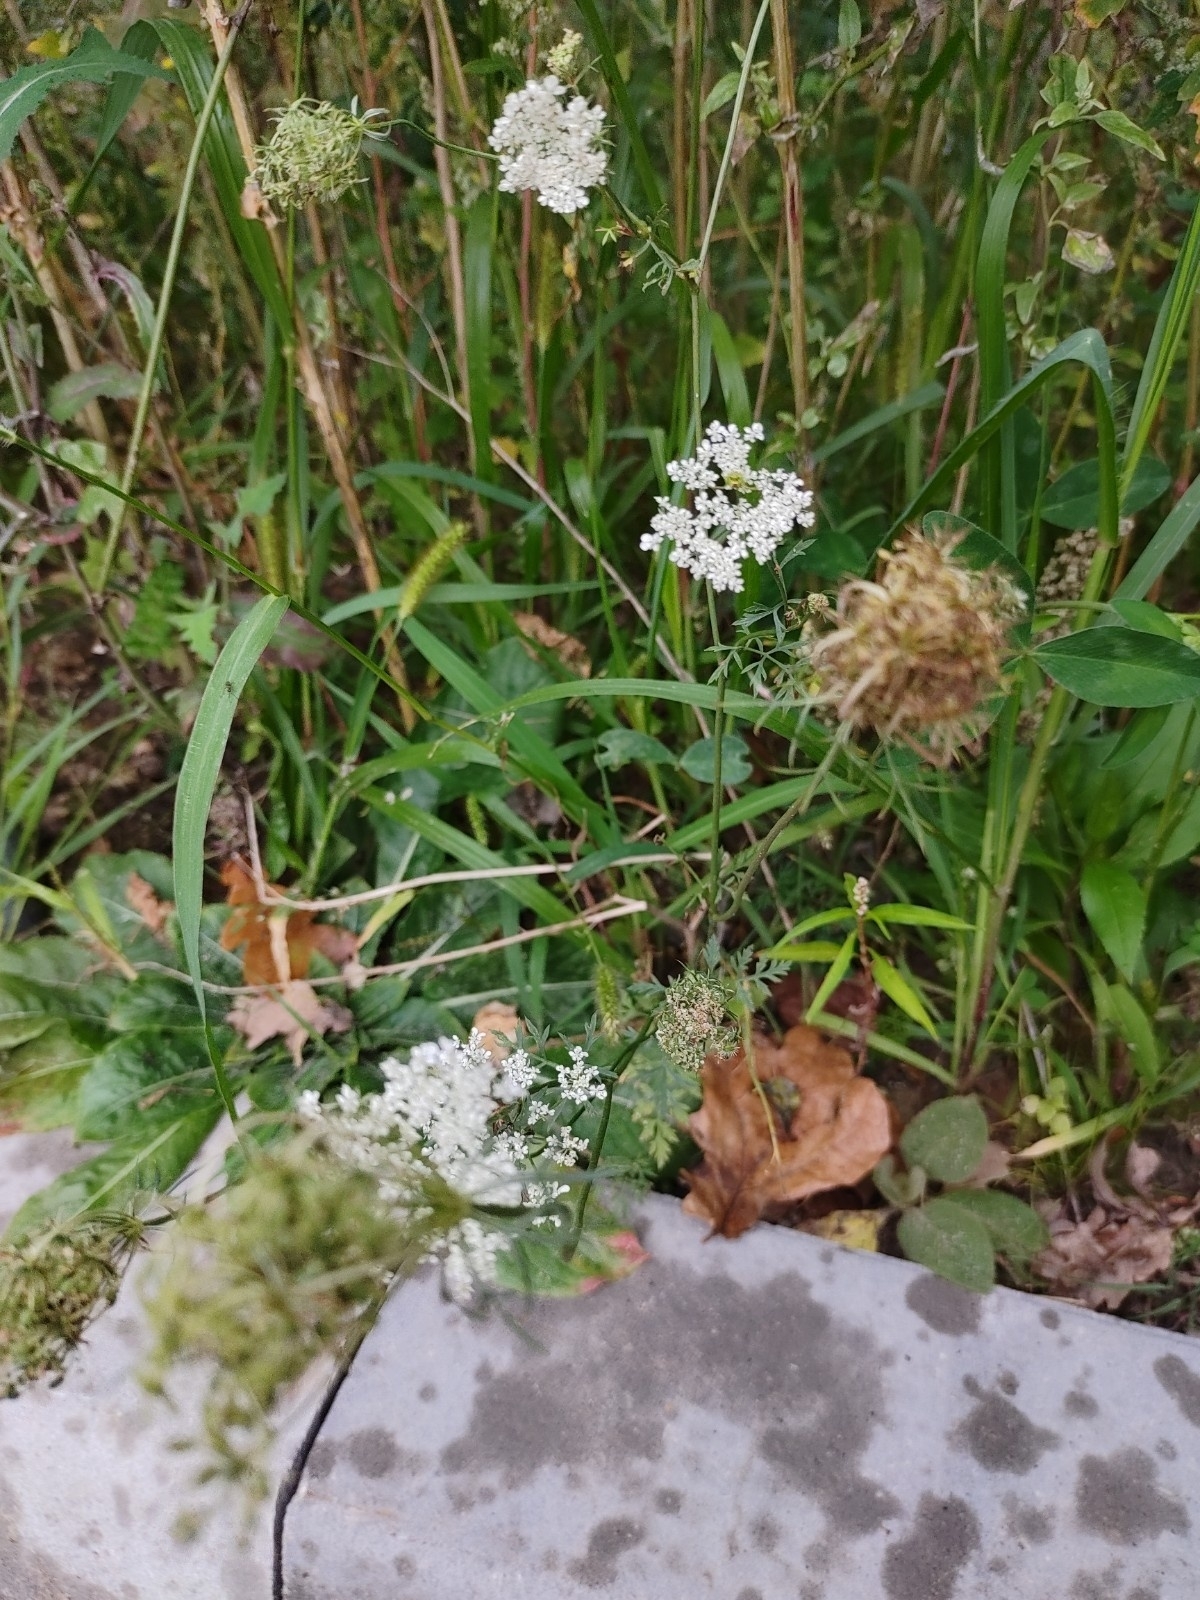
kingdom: Plantae
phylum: Tracheophyta
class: Magnoliopsida
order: Apiales
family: Apiaceae
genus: Daucus
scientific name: Daucus carota
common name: Wild carrot
